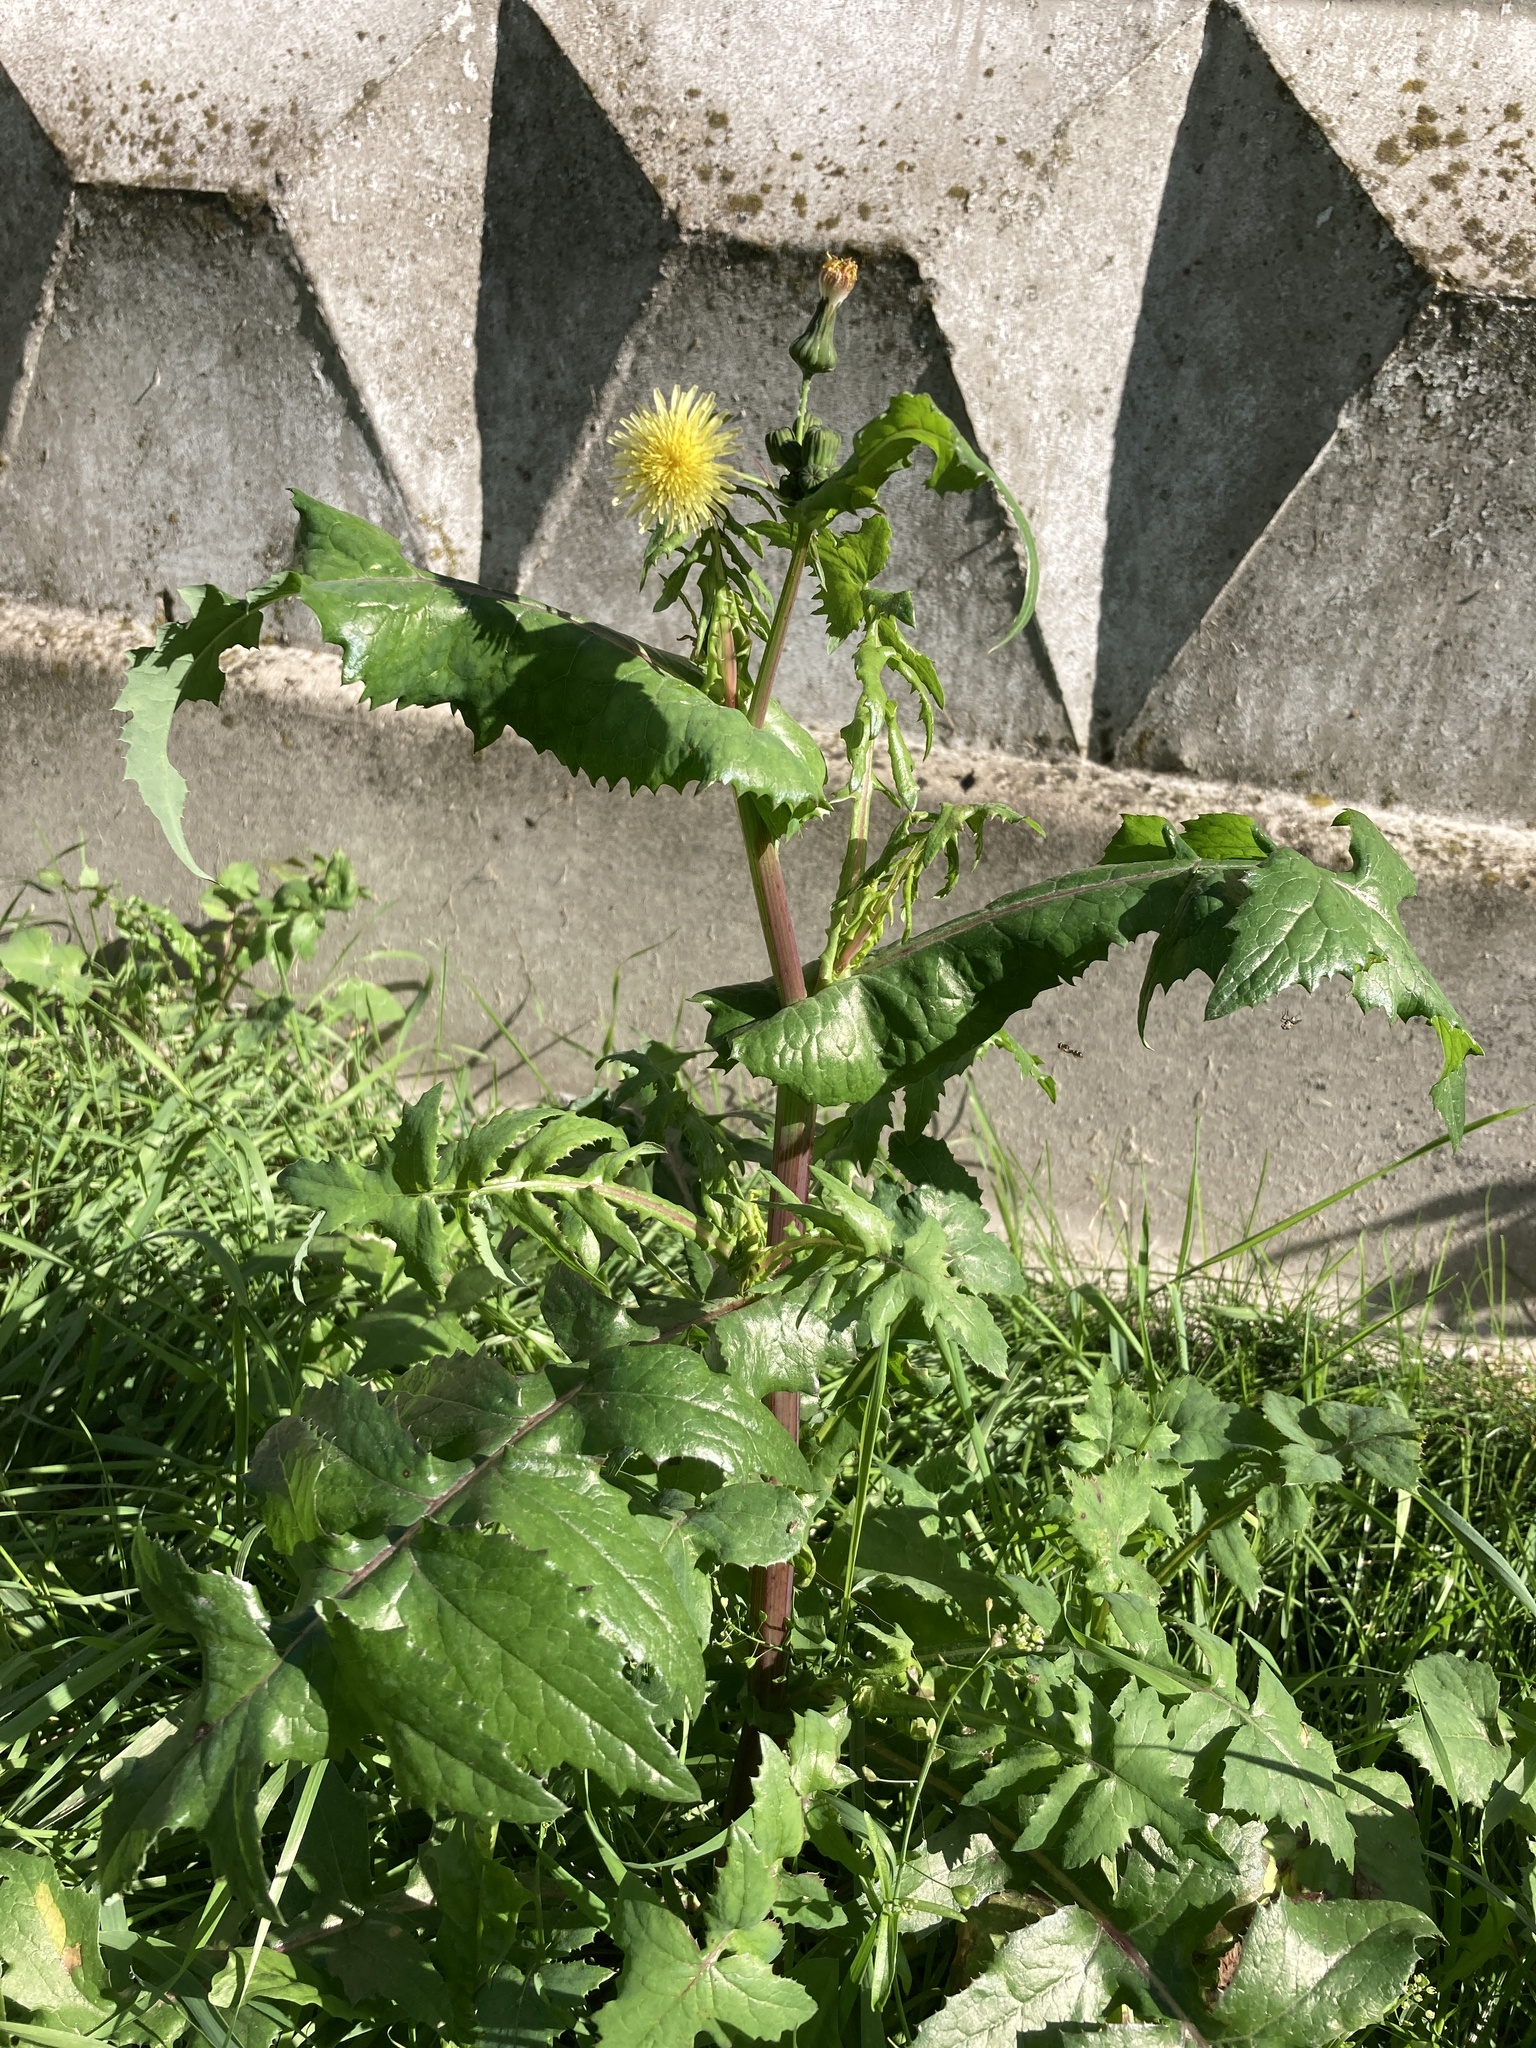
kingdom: Plantae
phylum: Tracheophyta
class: Magnoliopsida
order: Asterales
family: Asteraceae
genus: Sonchus
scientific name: Sonchus oleraceus
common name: Common sowthistle
